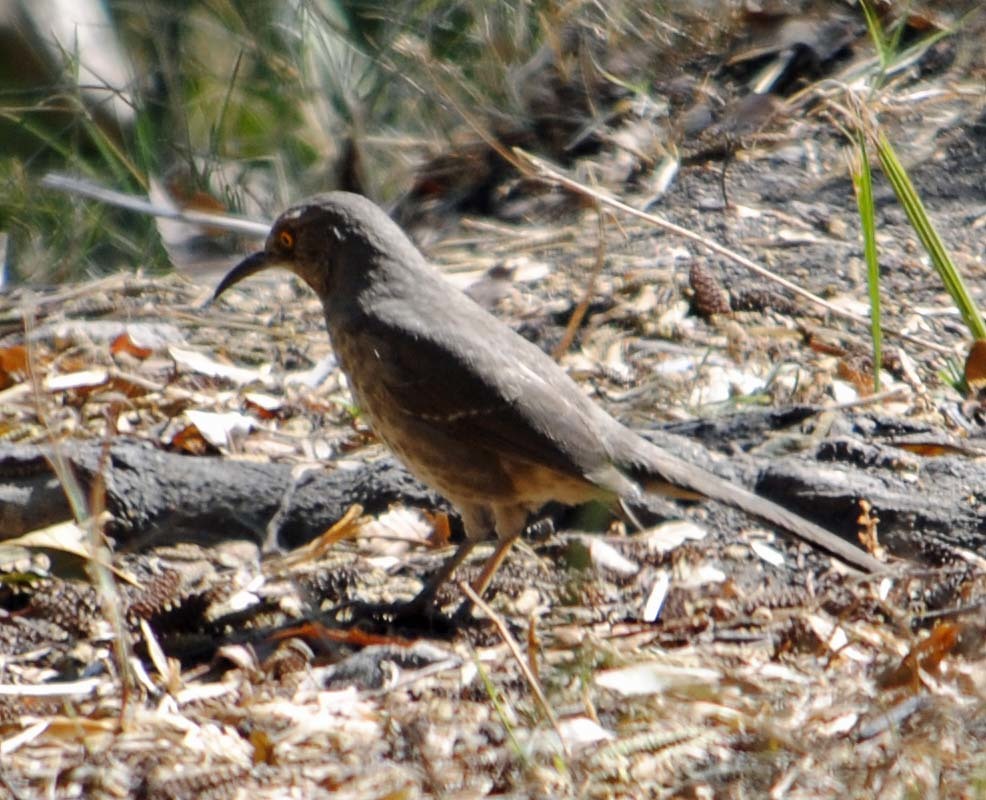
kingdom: Animalia
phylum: Chordata
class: Aves
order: Passeriformes
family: Mimidae
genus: Toxostoma
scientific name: Toxostoma curvirostre
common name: Curve-billed thrasher
